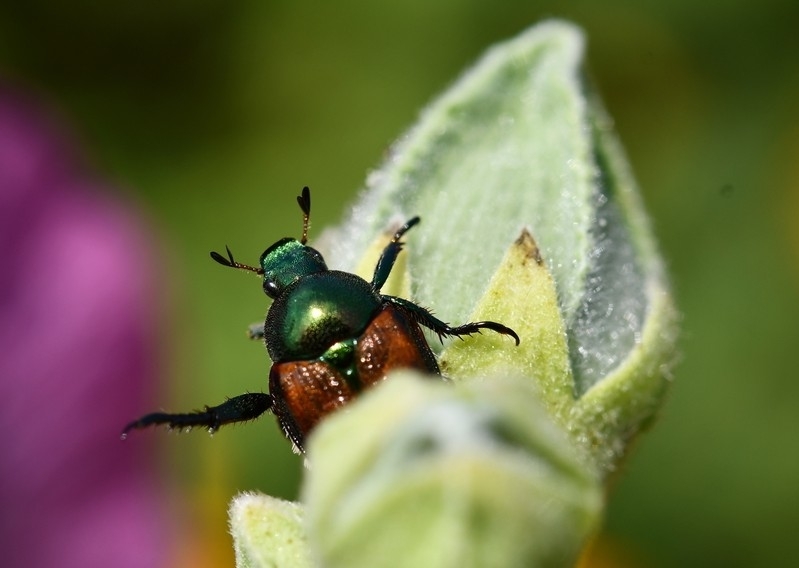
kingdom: Animalia
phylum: Arthropoda
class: Insecta
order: Coleoptera
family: Scarabaeidae
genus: Popillia
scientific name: Popillia japonica
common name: Japanese beetle
